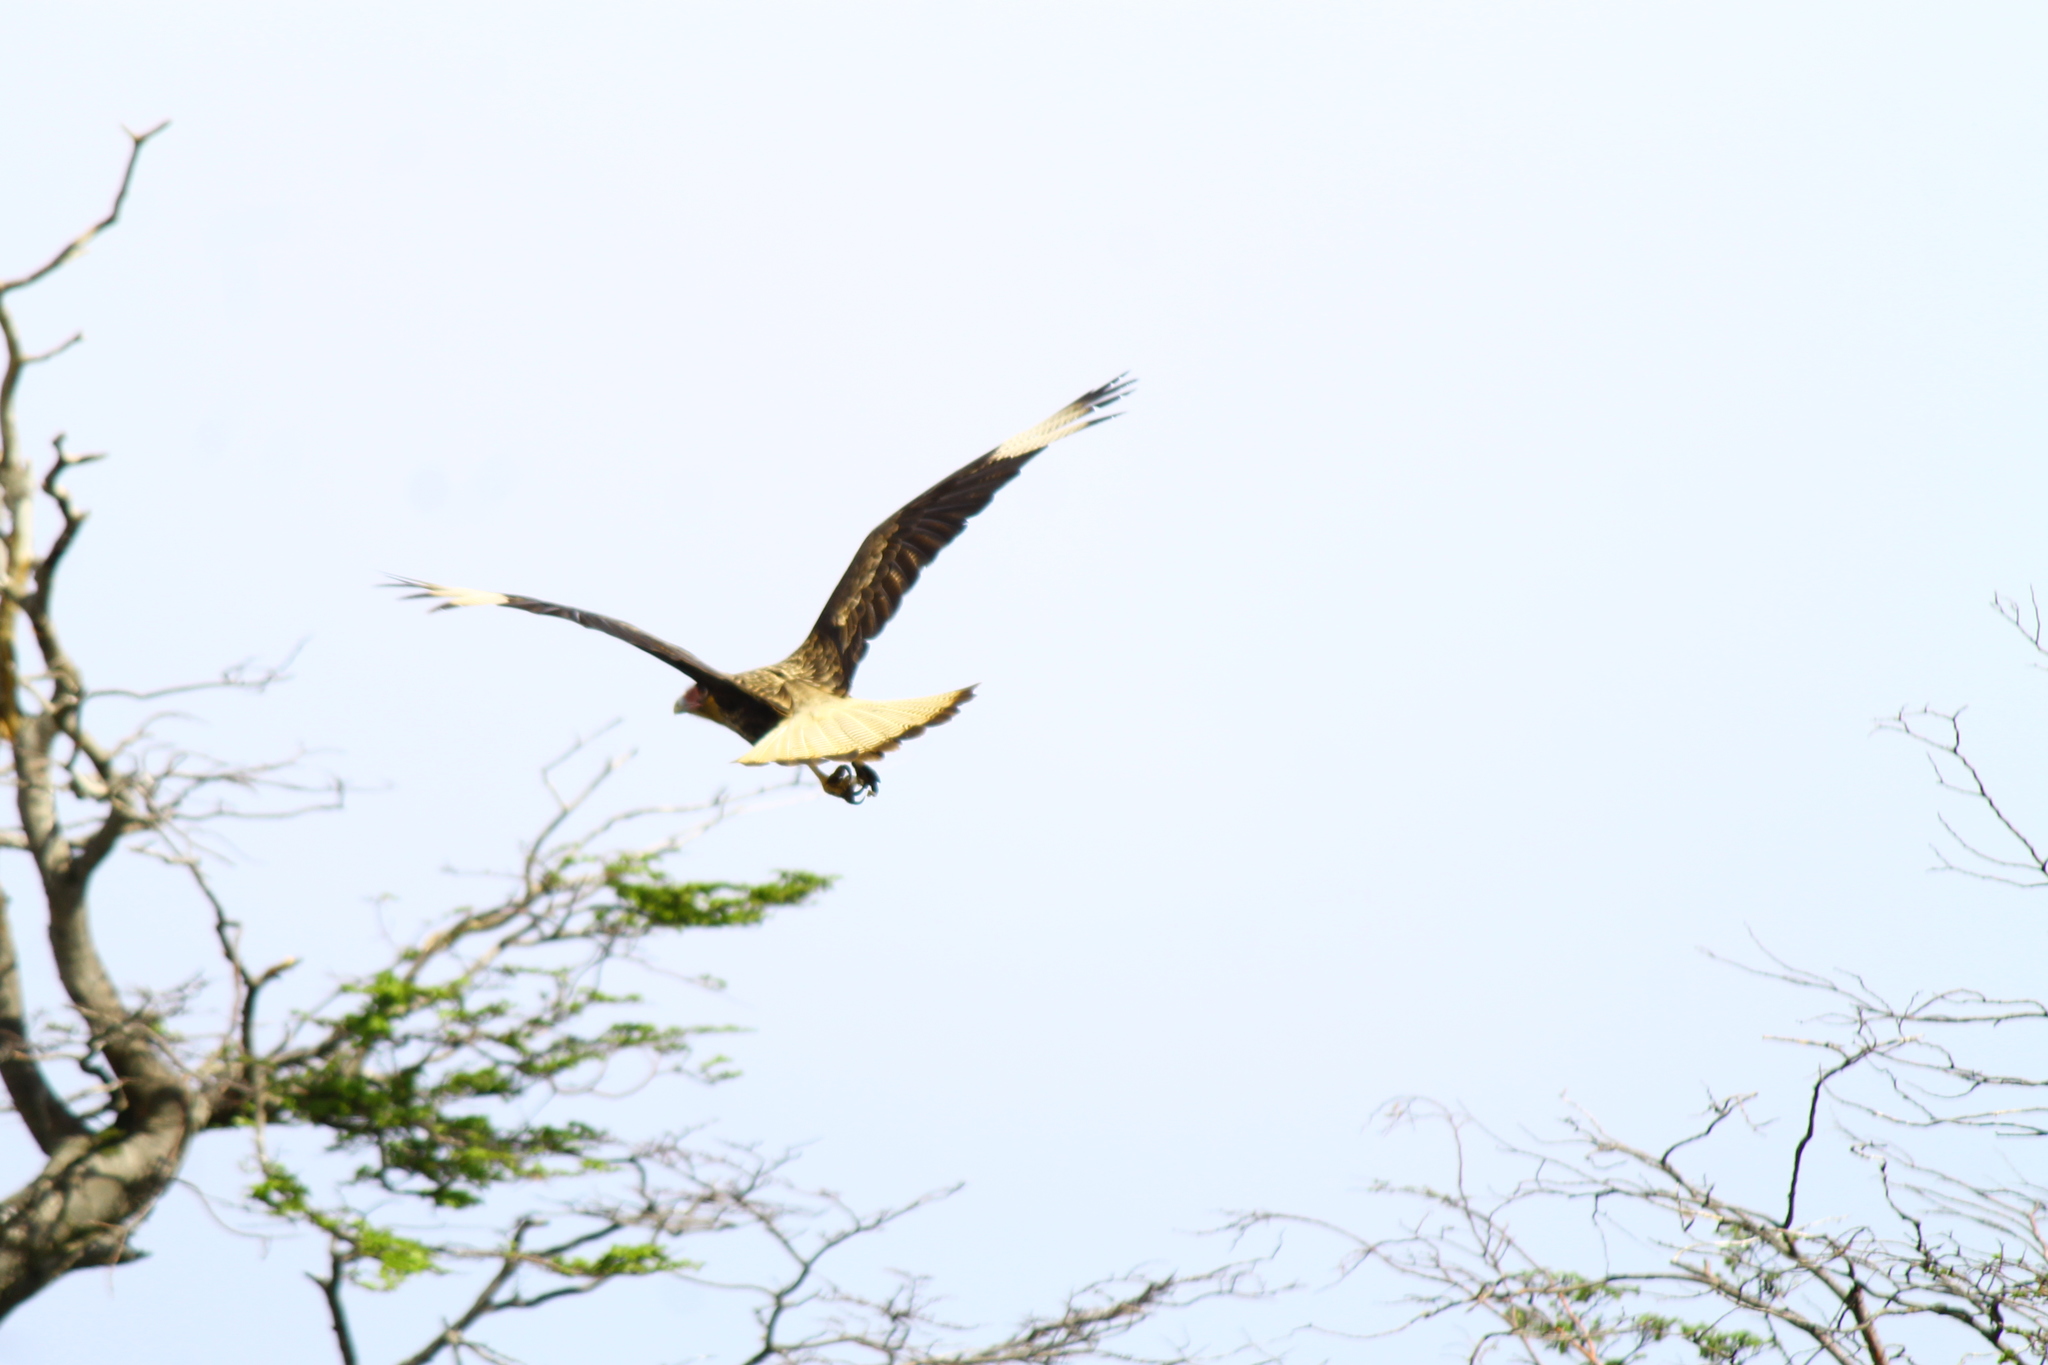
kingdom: Animalia
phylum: Chordata
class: Aves
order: Falconiformes
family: Falconidae
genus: Caracara
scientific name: Caracara plancus
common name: Southern caracara
